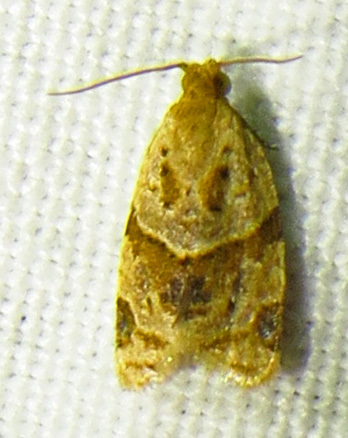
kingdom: Animalia
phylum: Arthropoda
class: Insecta
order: Lepidoptera
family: Tortricidae
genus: Clepsis
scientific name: Clepsis peritana
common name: Garden tortrix
